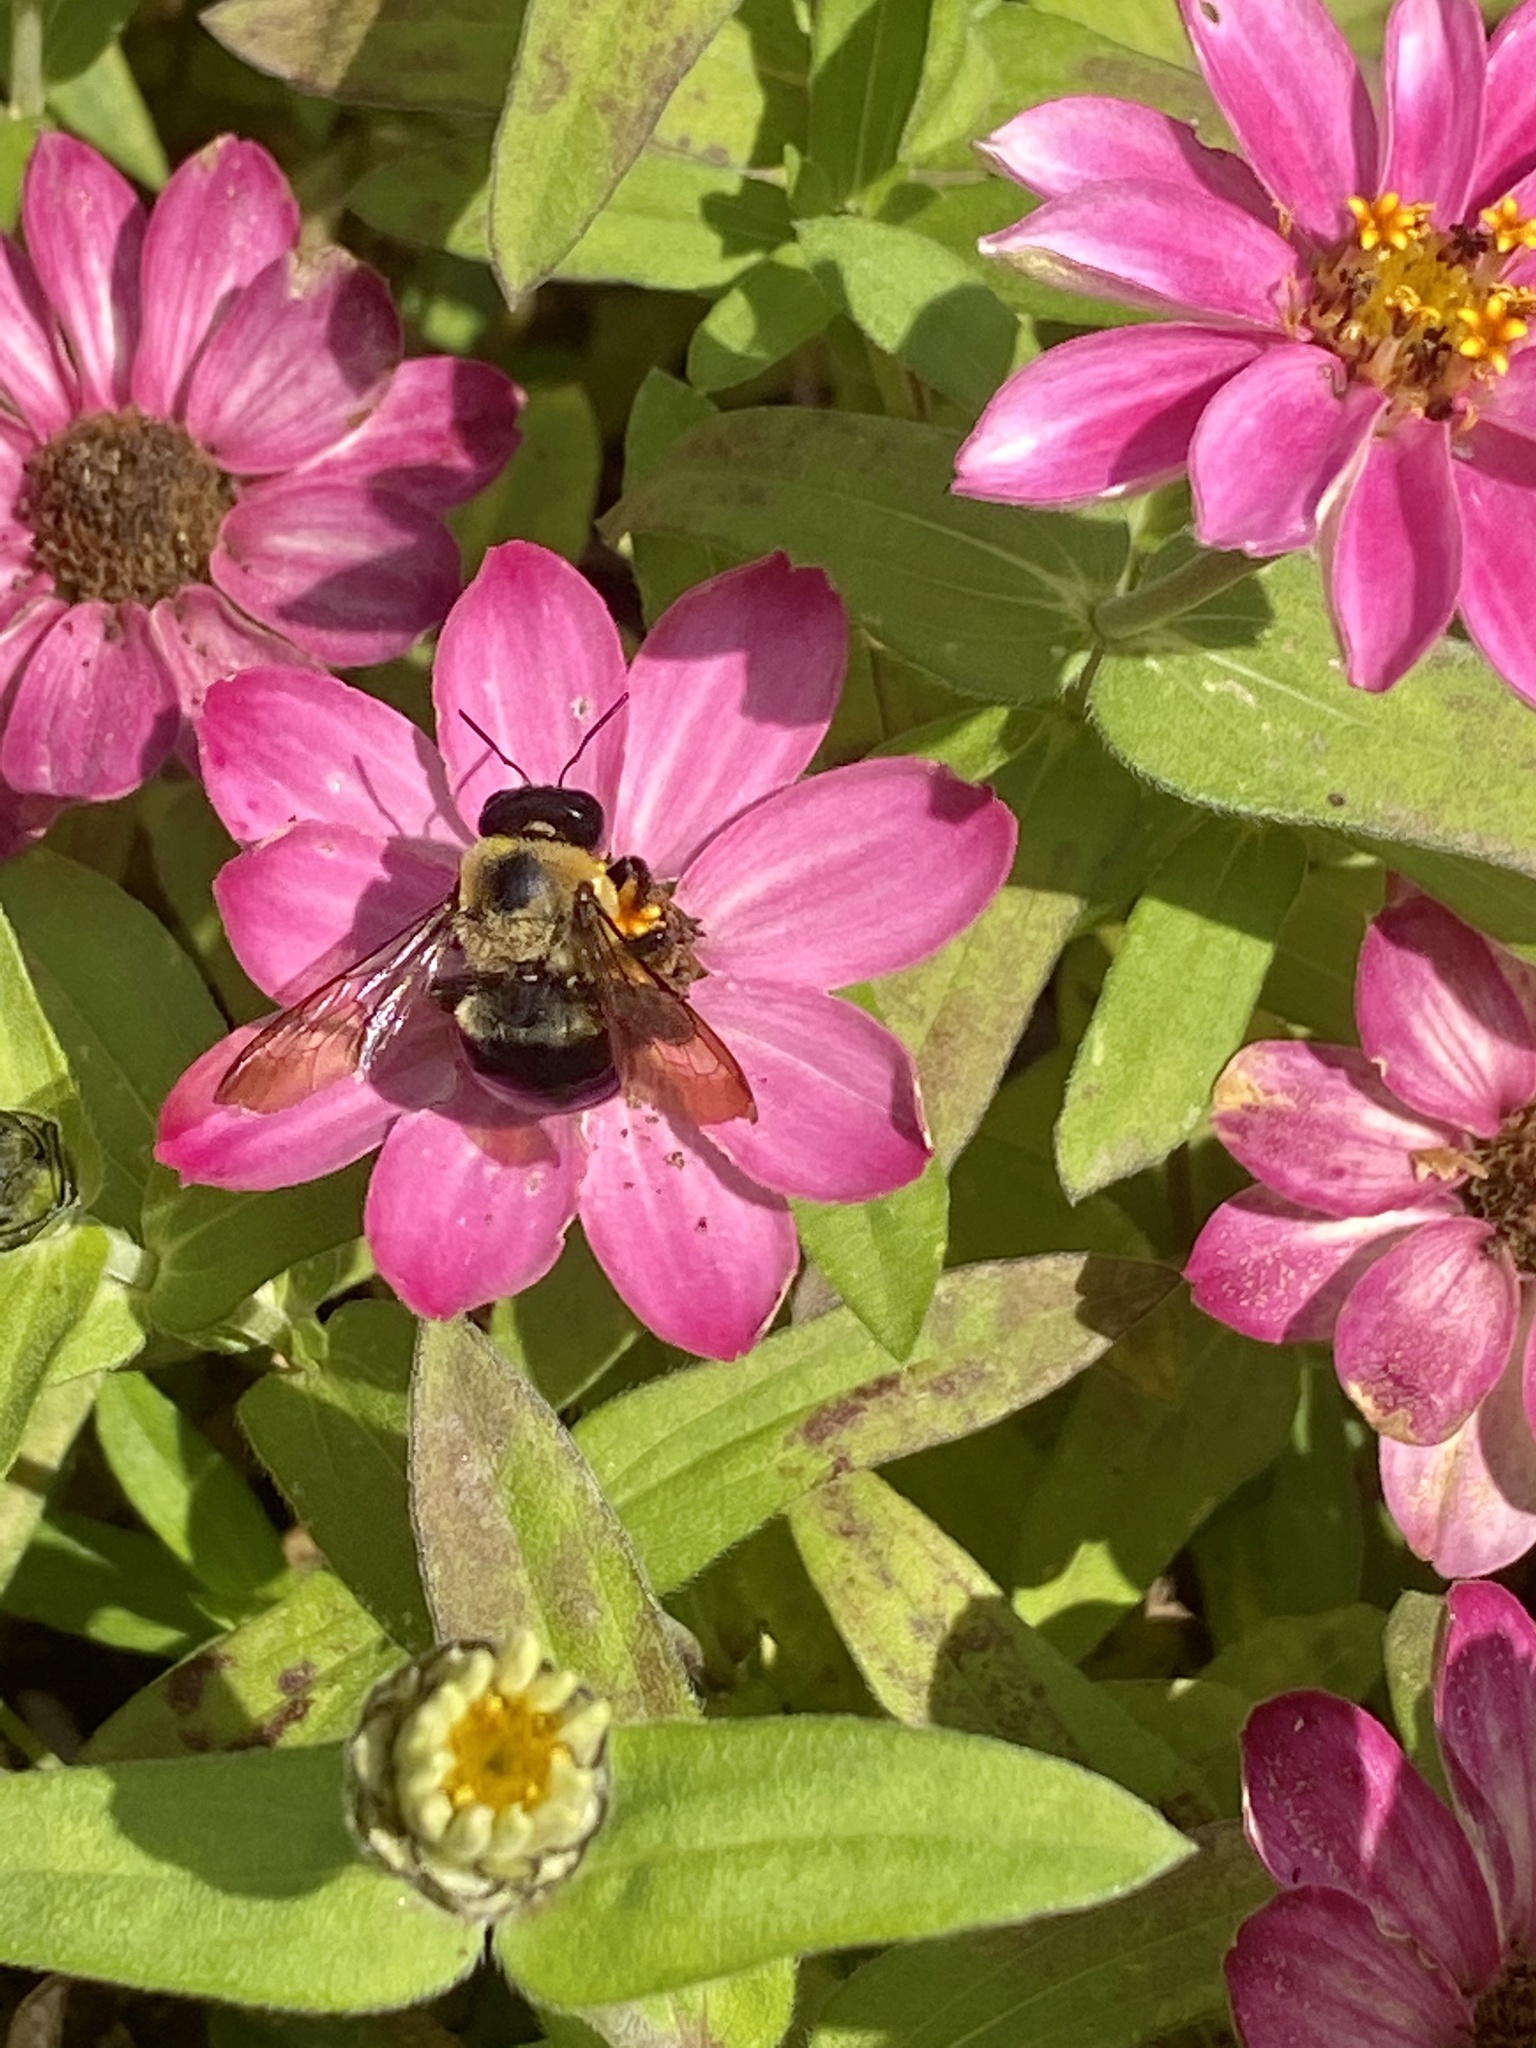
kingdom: Animalia
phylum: Arthropoda
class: Insecta
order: Hymenoptera
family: Apidae
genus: Xylocopa
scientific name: Xylocopa virginica
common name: Carpenter bee
